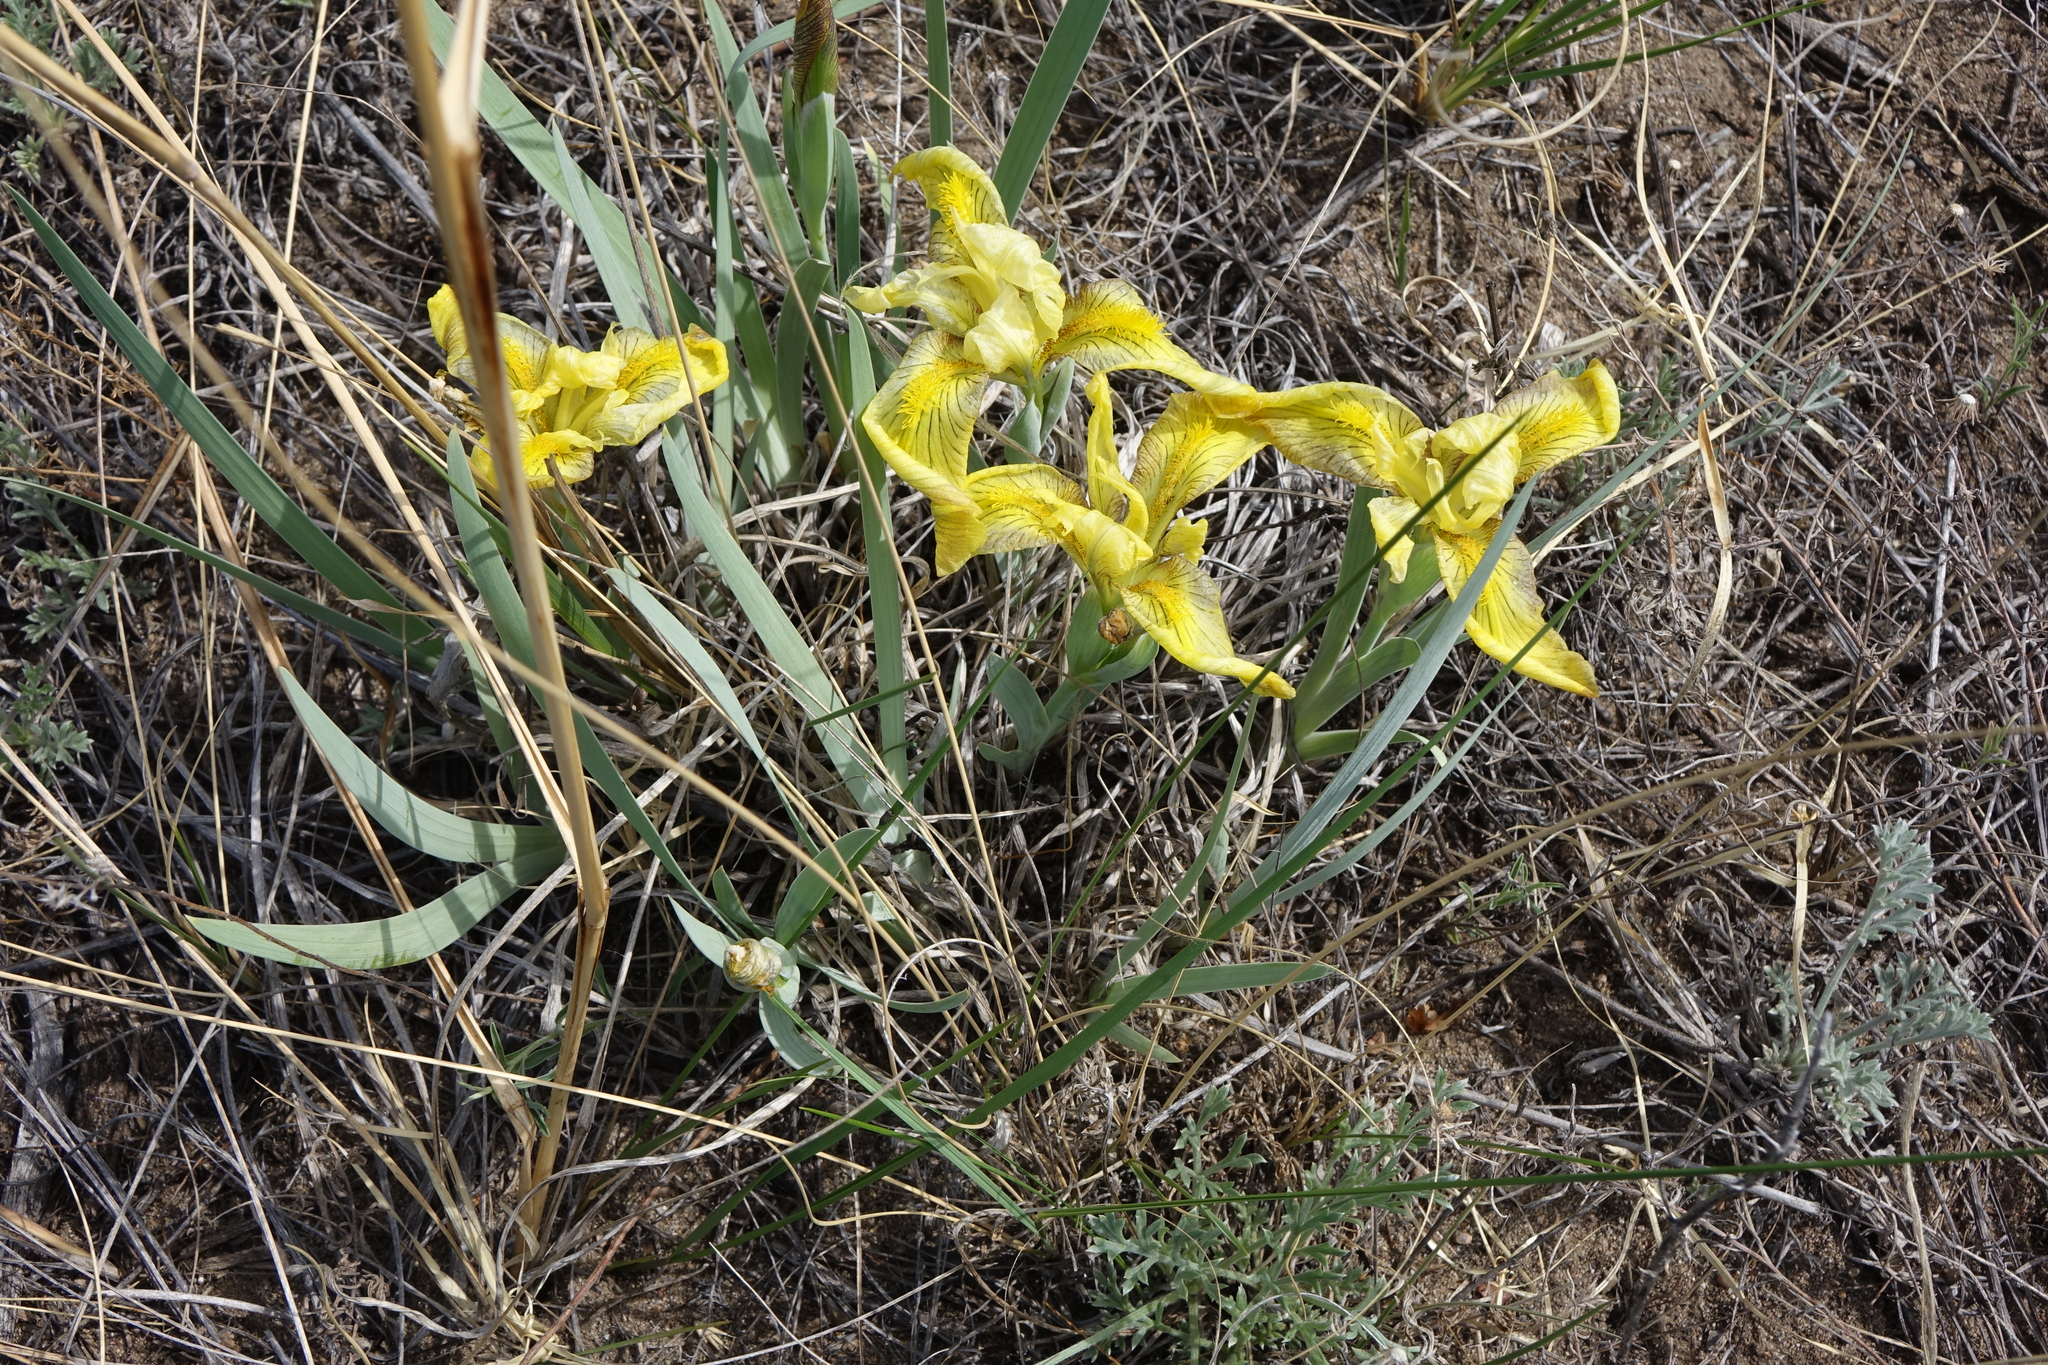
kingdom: Plantae
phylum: Tracheophyta
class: Liliopsida
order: Asparagales
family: Iridaceae
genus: Iris
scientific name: Iris humilis
